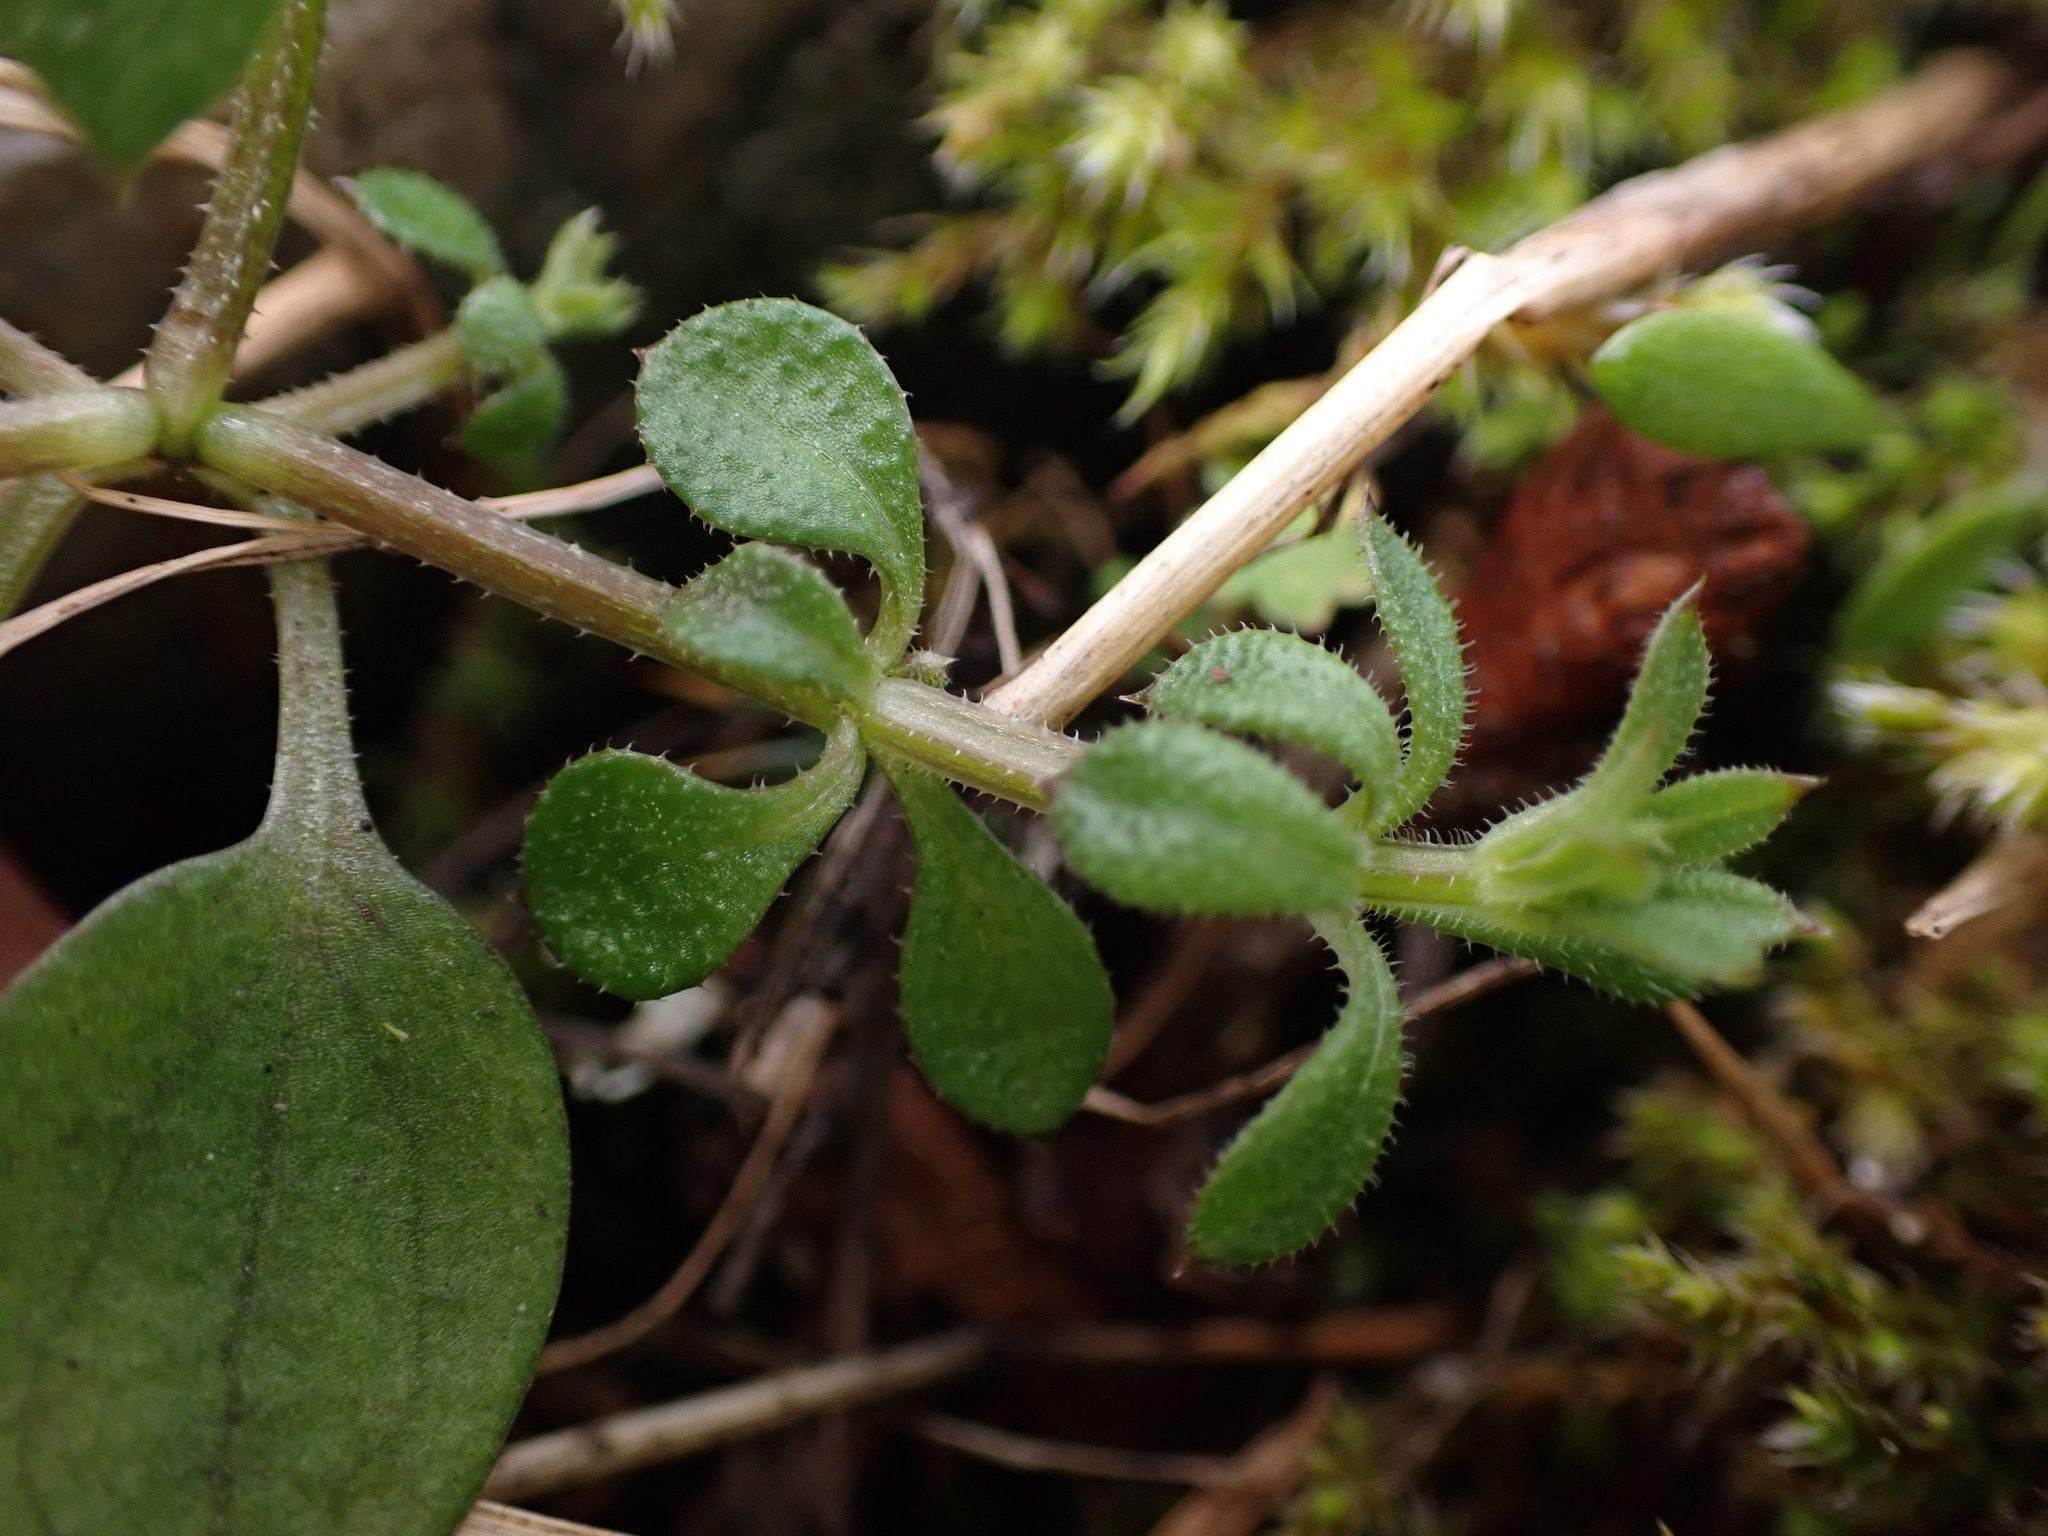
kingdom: Plantae
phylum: Tracheophyta
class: Magnoliopsida
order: Gentianales
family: Rubiaceae
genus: Galium
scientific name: Galium aparine
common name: Cleavers
